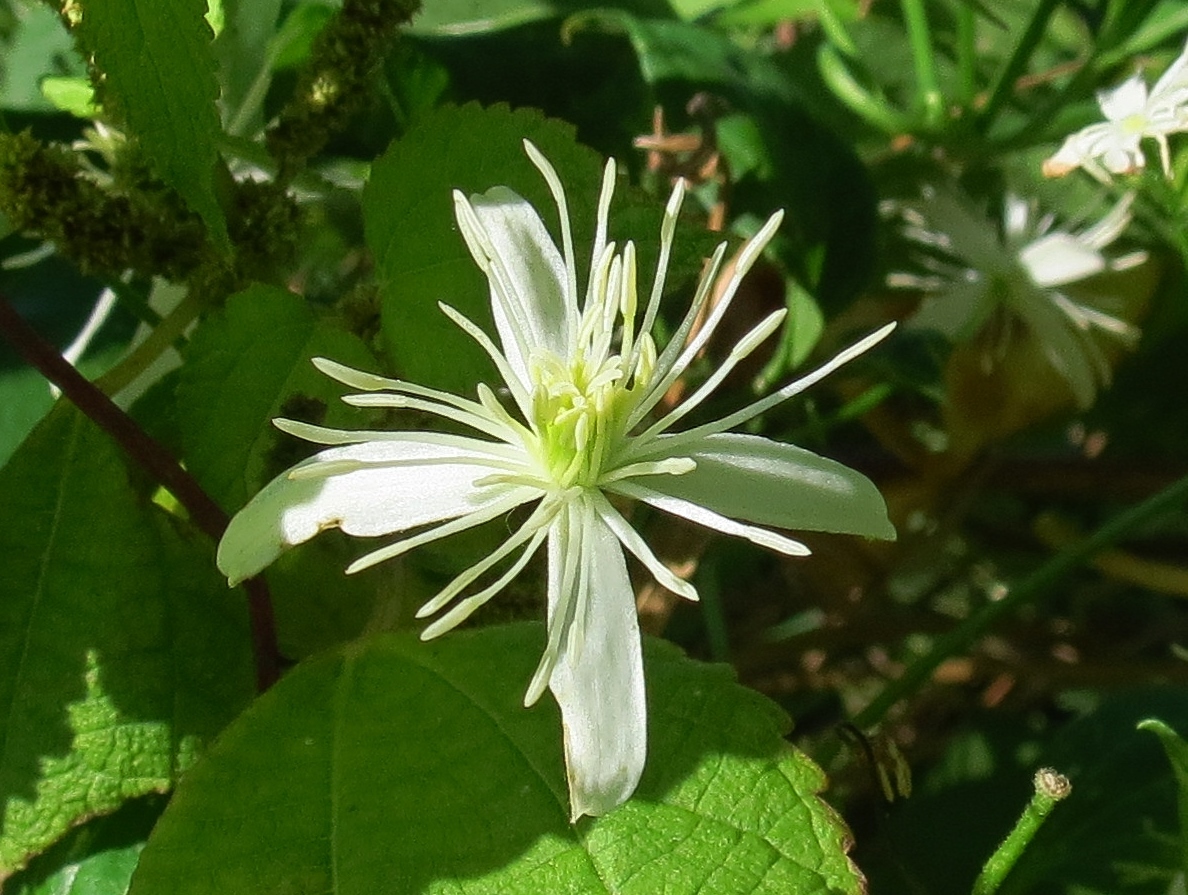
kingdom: Plantae
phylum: Tracheophyta
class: Magnoliopsida
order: Ranunculales
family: Ranunculaceae
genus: Clematis
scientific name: Clematis terniflora
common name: Sweet autumn clematis
